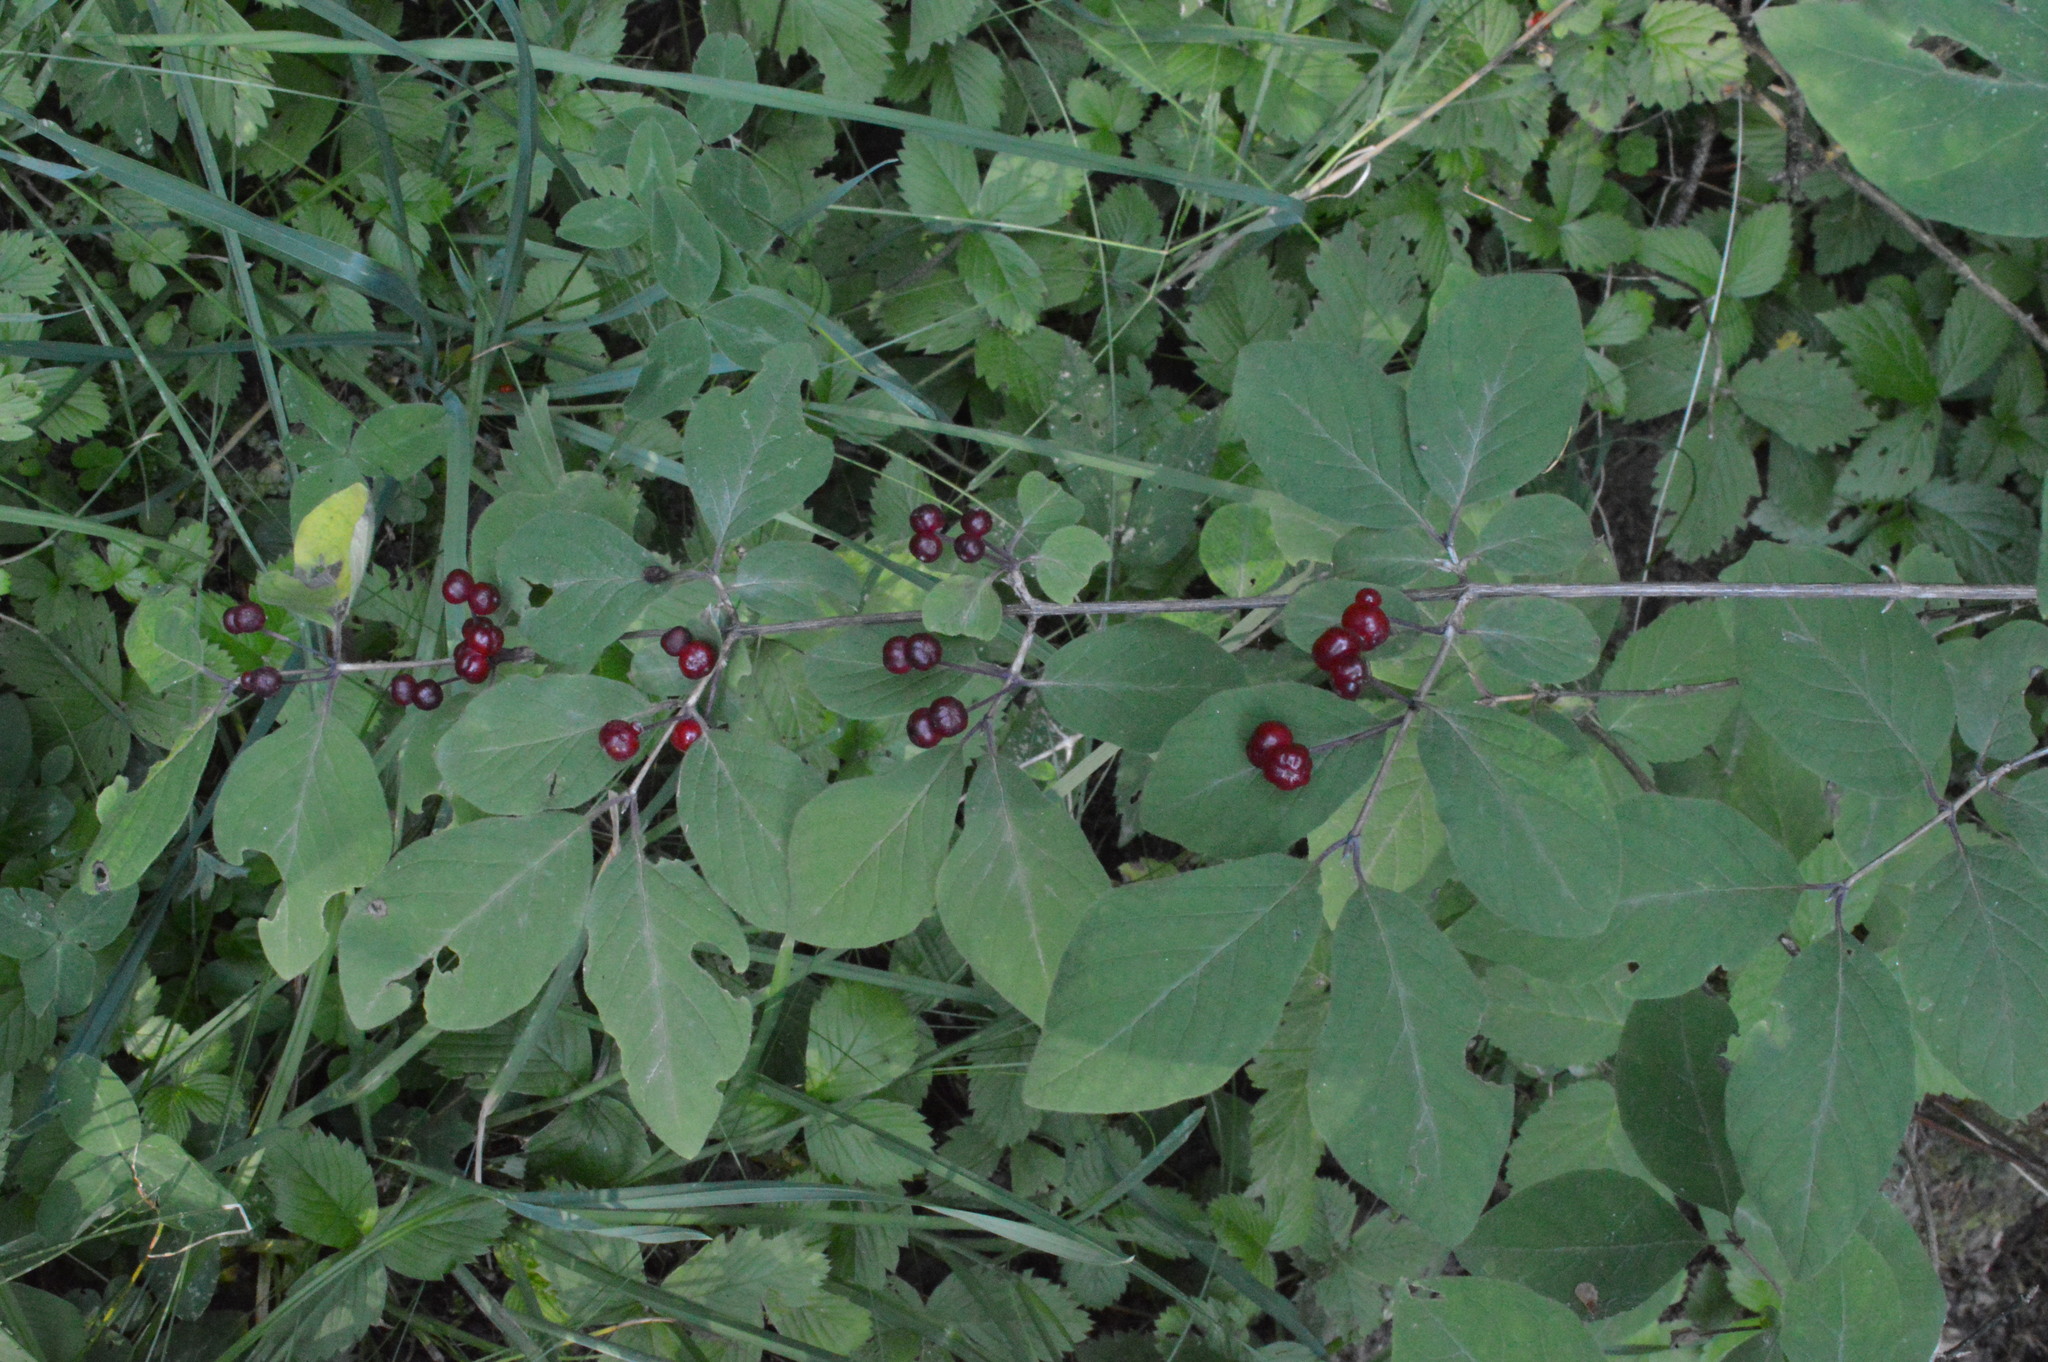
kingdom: Plantae
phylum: Tracheophyta
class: Magnoliopsida
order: Dipsacales
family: Caprifoliaceae
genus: Lonicera
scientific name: Lonicera xylosteum
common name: Fly honeysuckle
